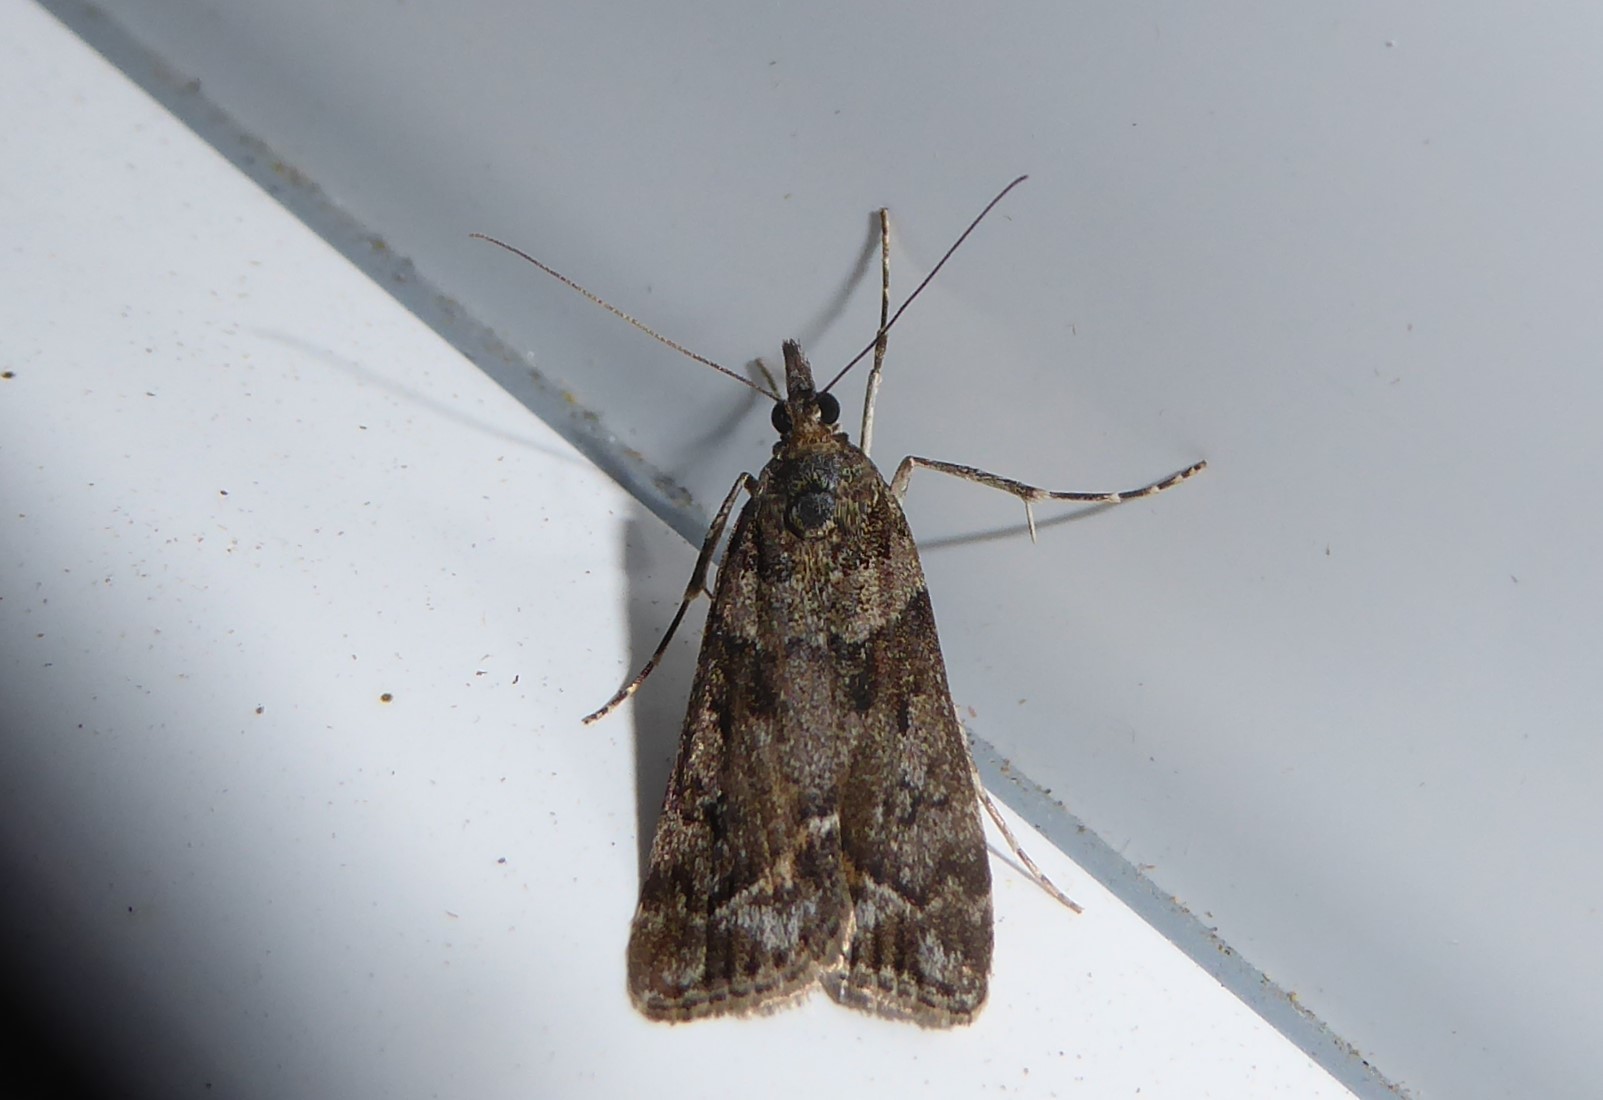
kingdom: Animalia
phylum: Arthropoda
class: Insecta
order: Lepidoptera
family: Crambidae
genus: Eudonia
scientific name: Eudonia submarginalis
